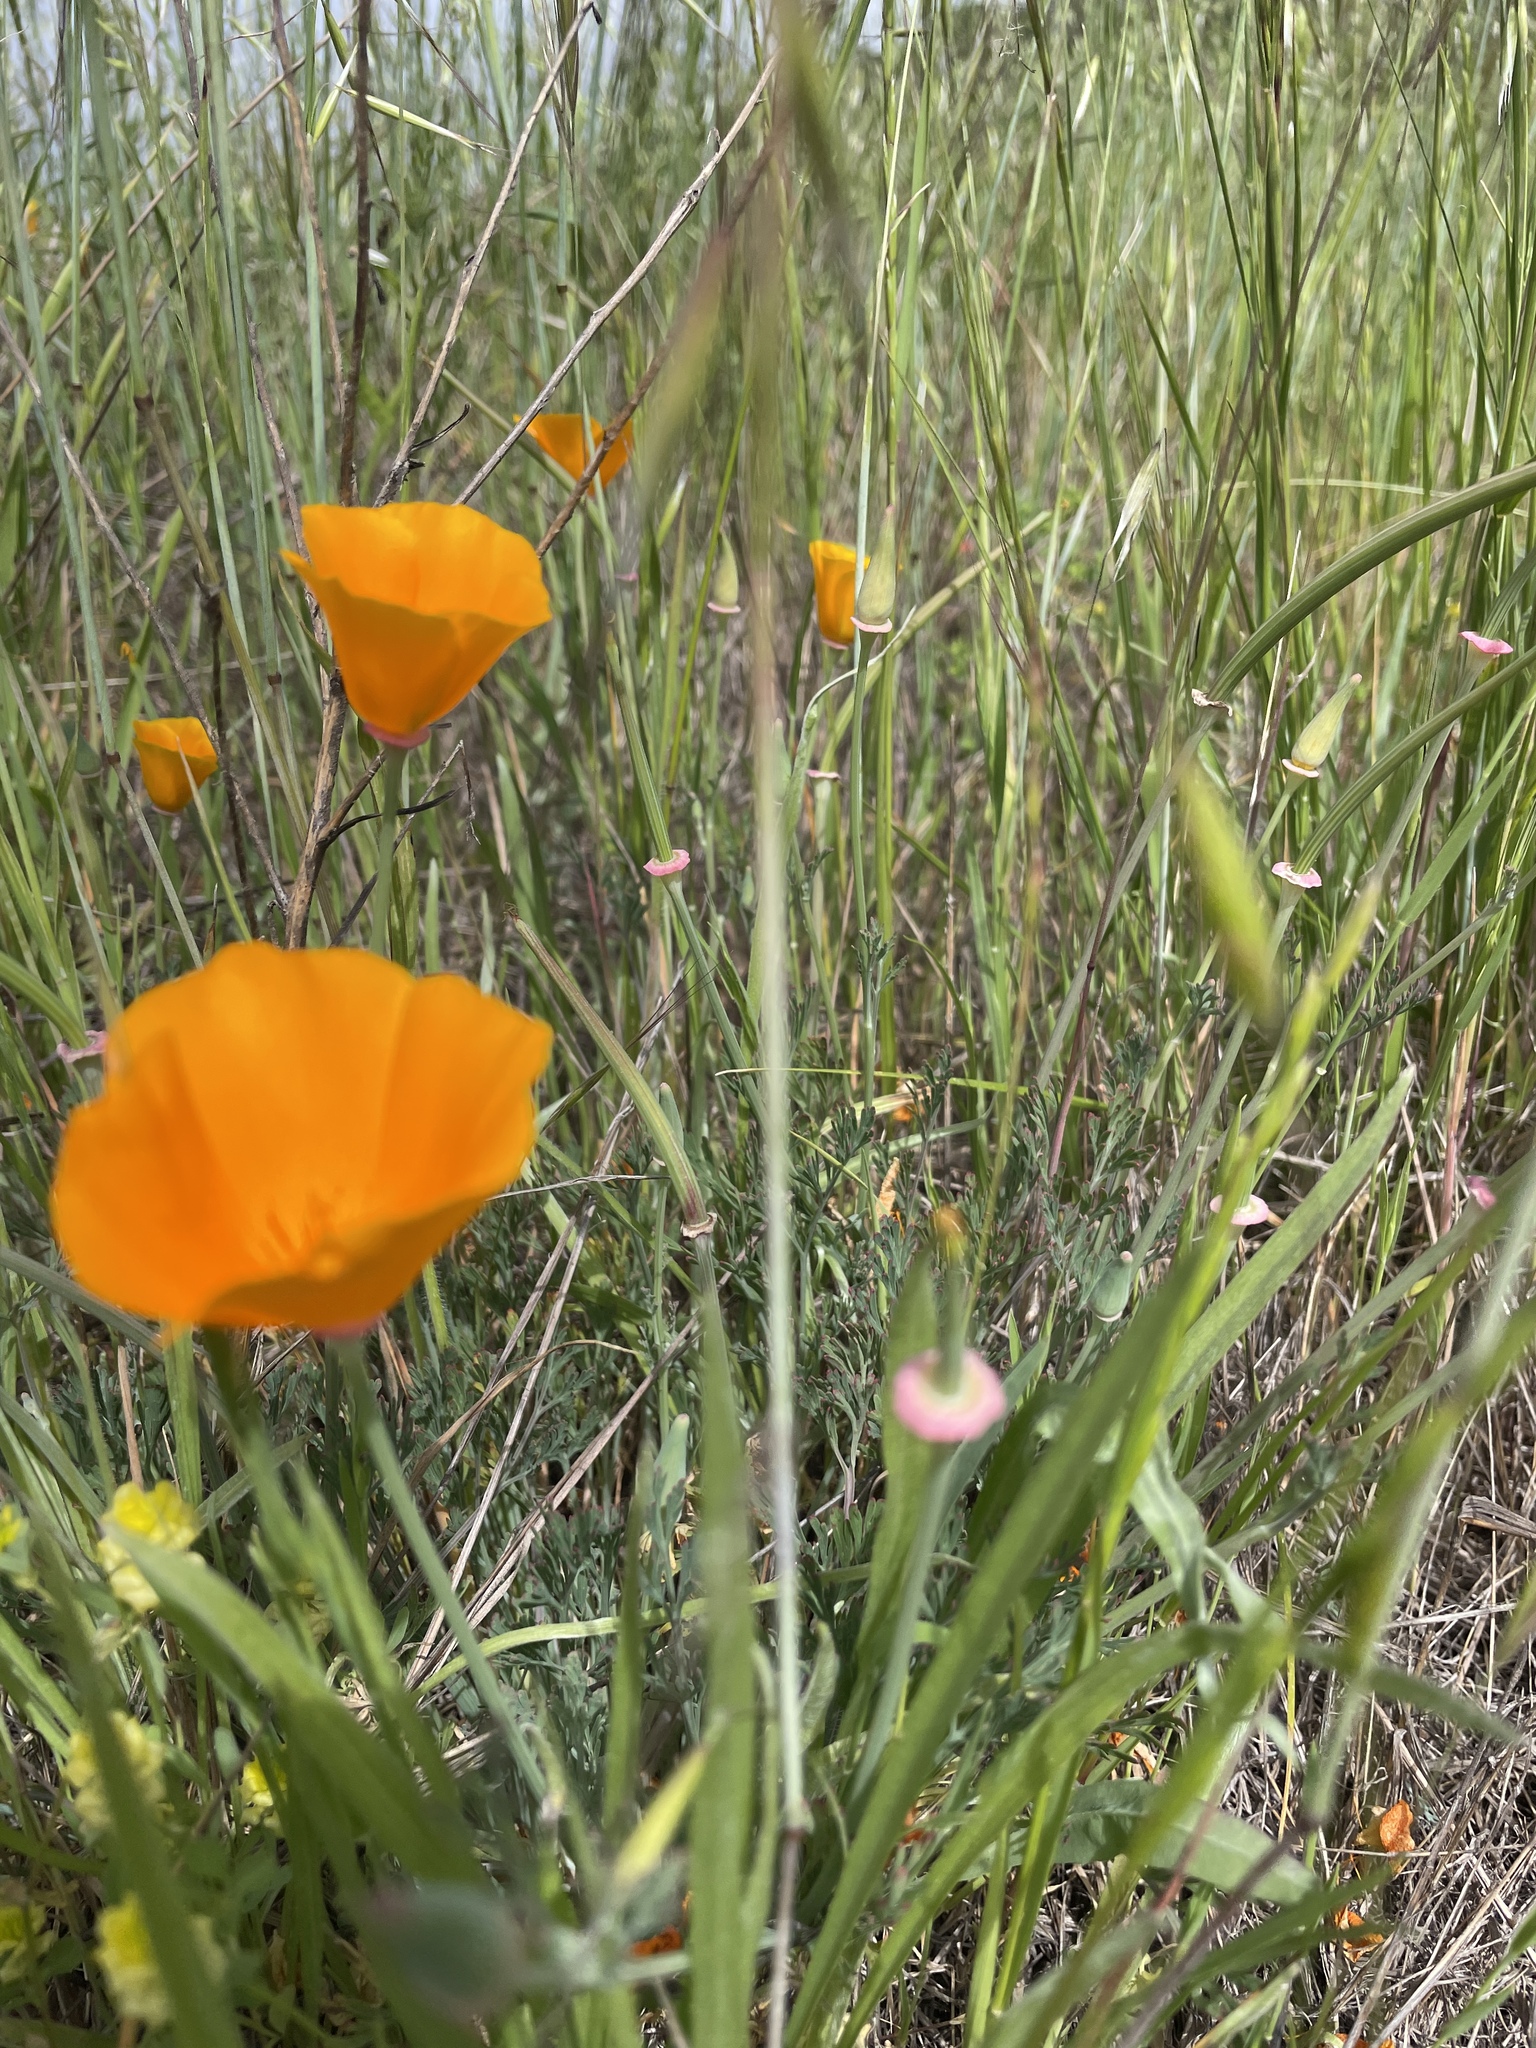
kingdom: Plantae
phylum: Tracheophyta
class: Magnoliopsida
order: Ranunculales
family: Papaveraceae
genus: Eschscholzia
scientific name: Eschscholzia californica
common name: California poppy
